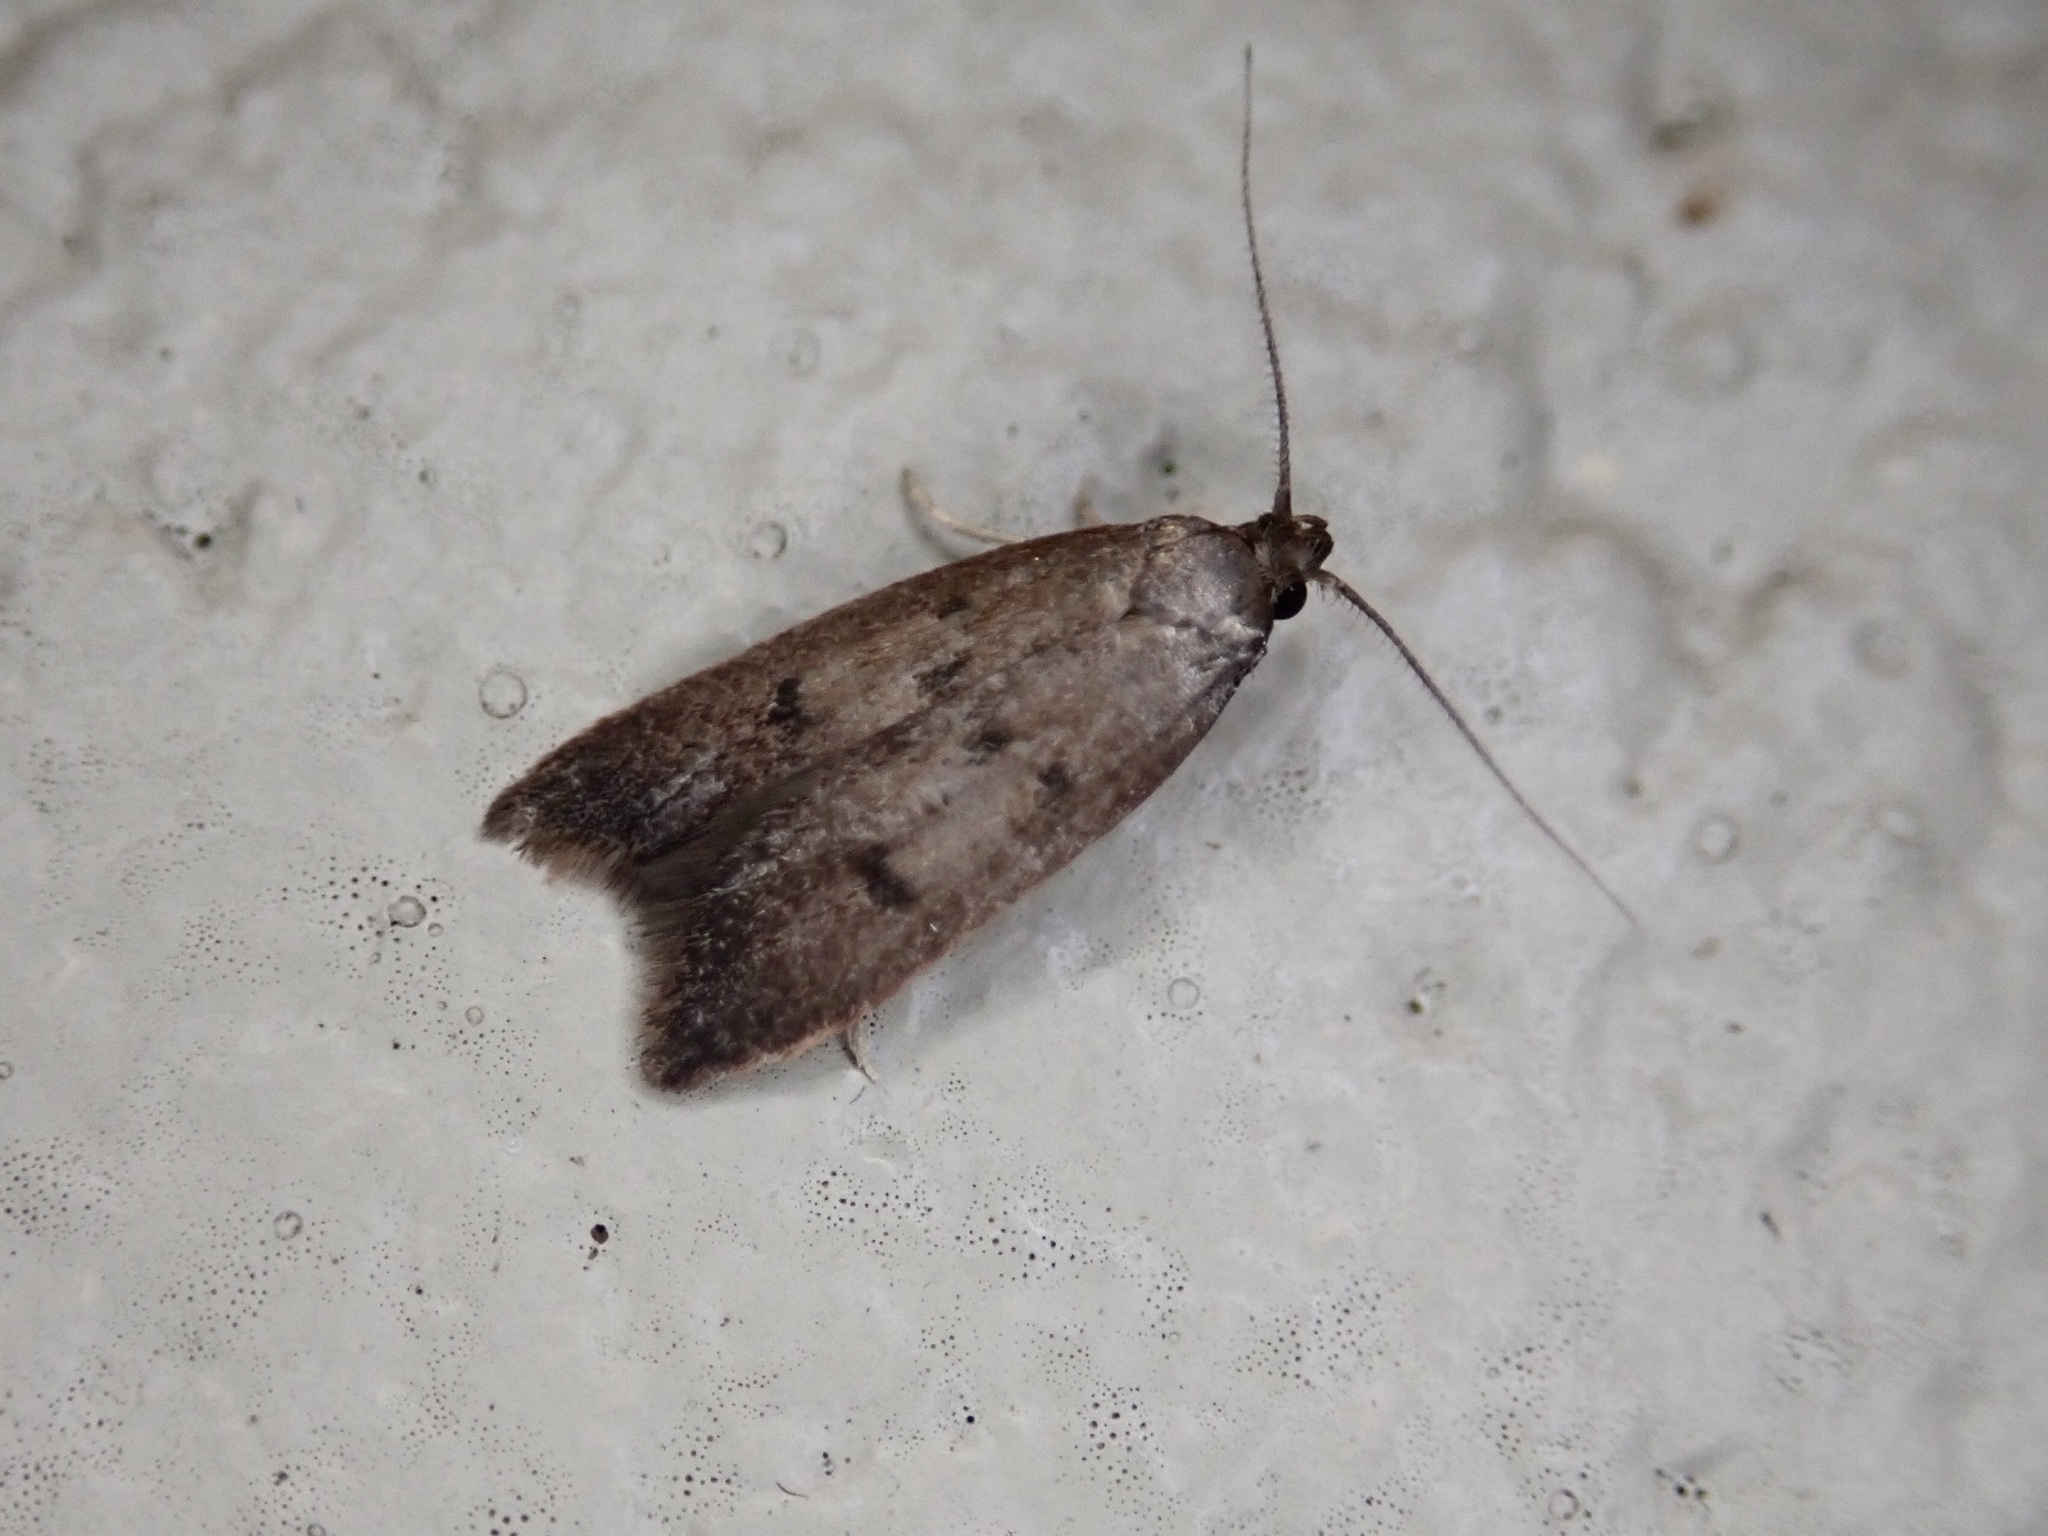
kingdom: Animalia
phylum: Arthropoda
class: Insecta
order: Lepidoptera
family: Oecophoridae
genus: Tachystola
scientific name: Tachystola acroxantha
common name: Ruddy streak
